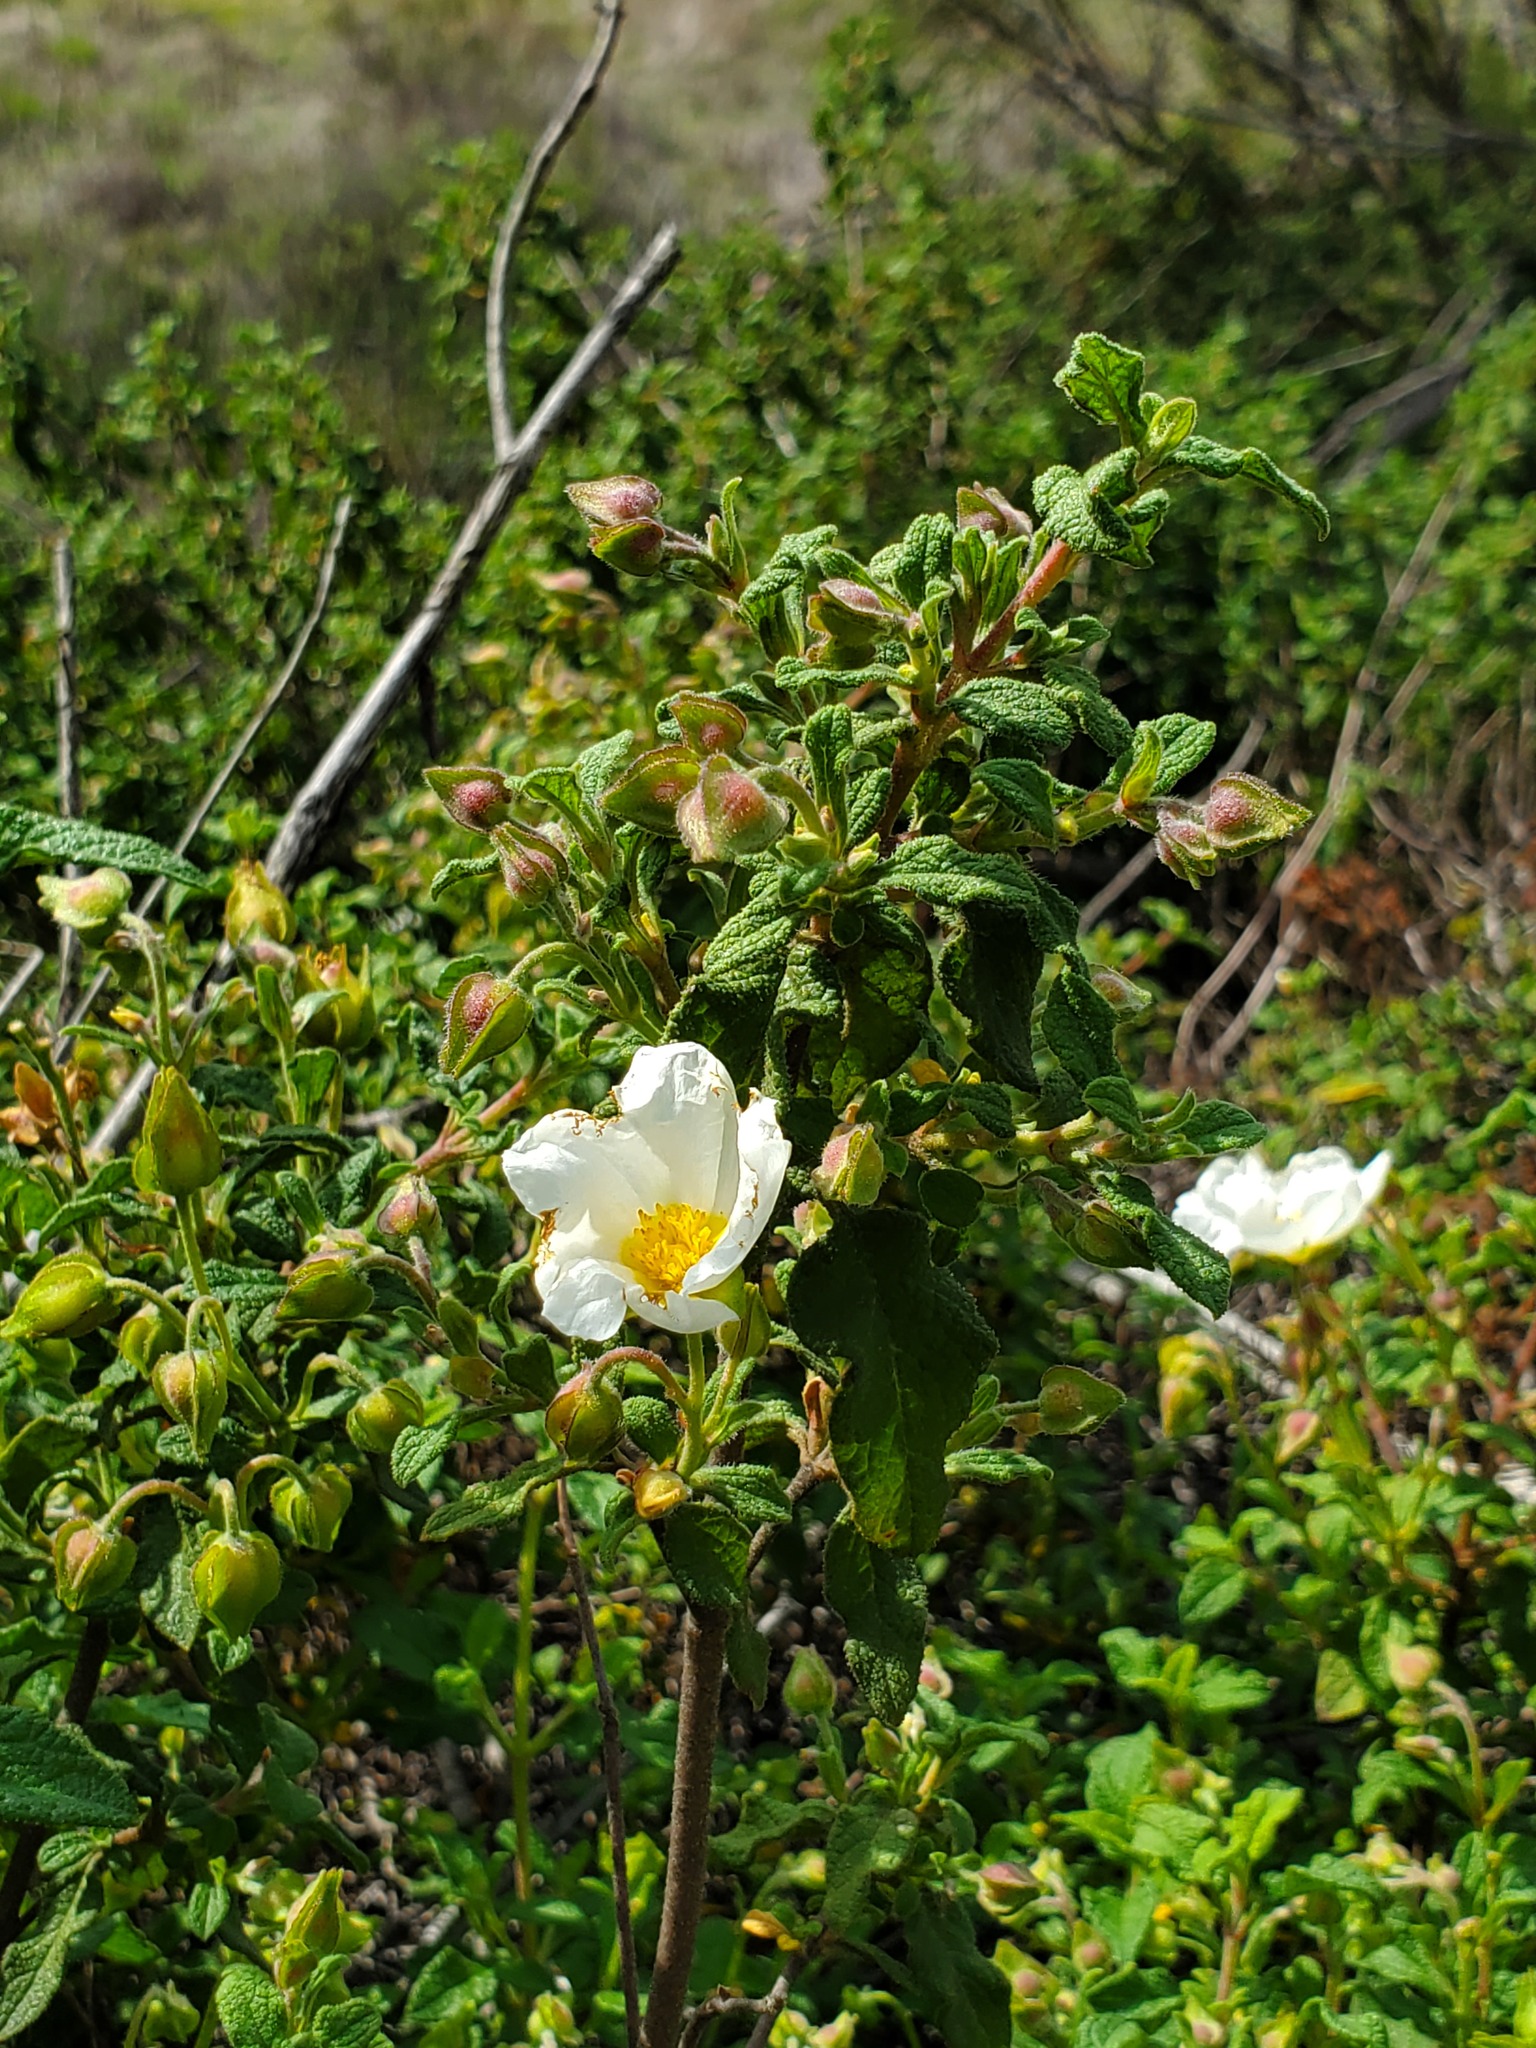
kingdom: Plantae
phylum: Tracheophyta
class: Magnoliopsida
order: Malvales
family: Cistaceae
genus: Cistus
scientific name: Cistus salviifolius
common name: Salvia cistus
